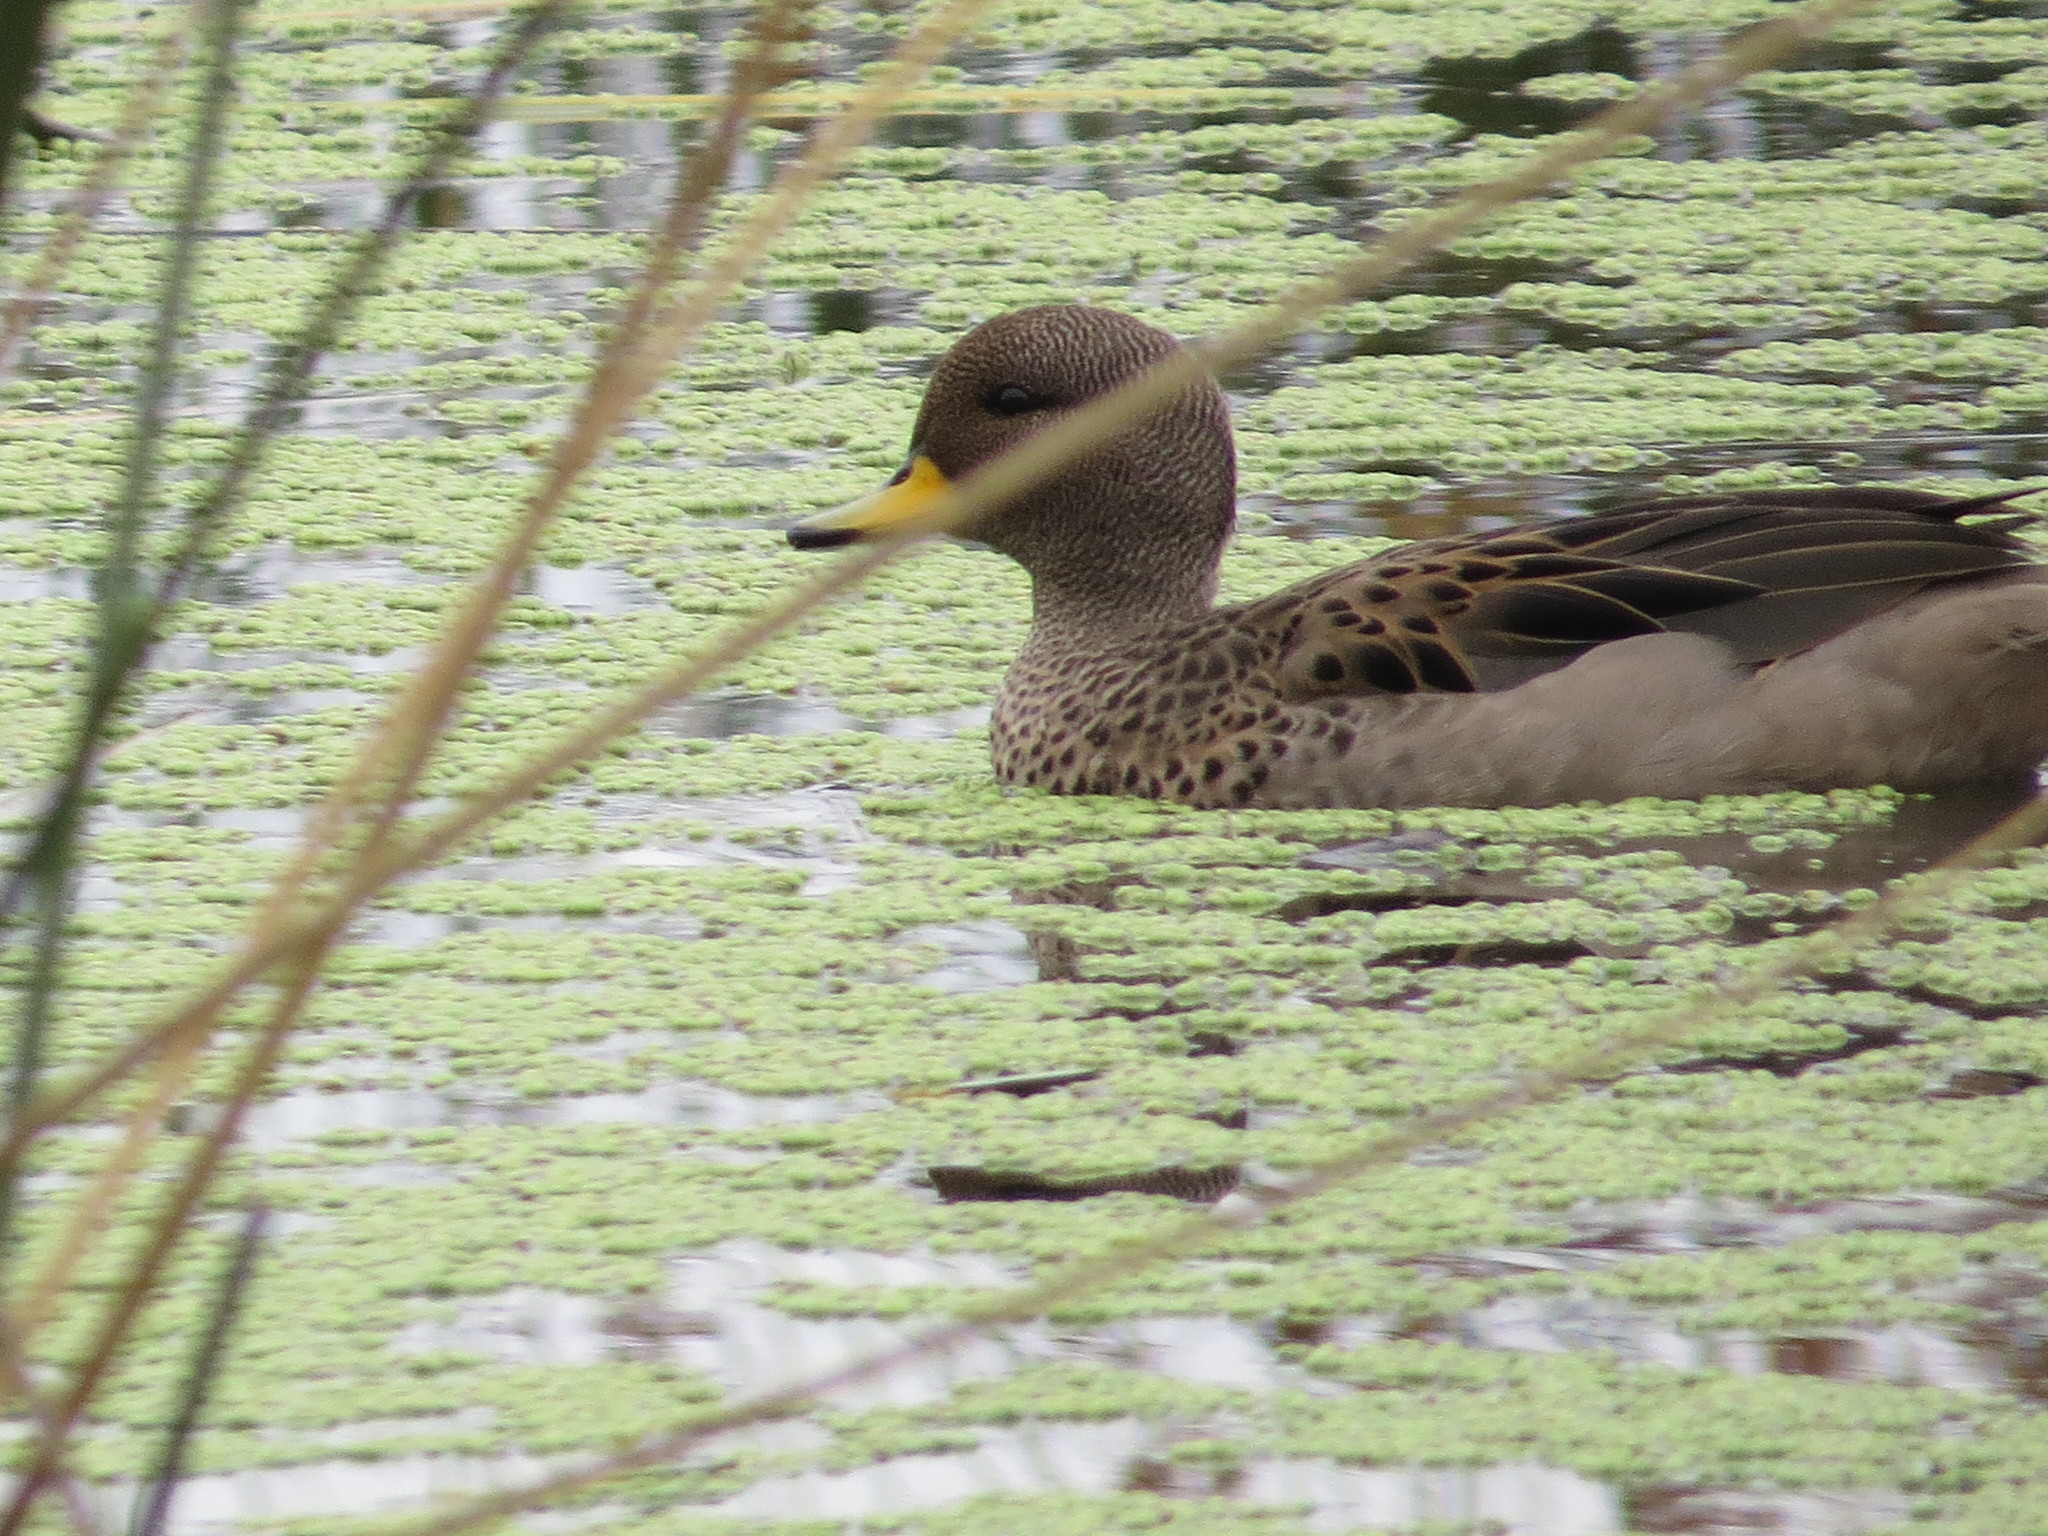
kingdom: Animalia
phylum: Chordata
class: Aves
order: Anseriformes
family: Anatidae
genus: Anas
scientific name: Anas flavirostris
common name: Yellow-billed teal
